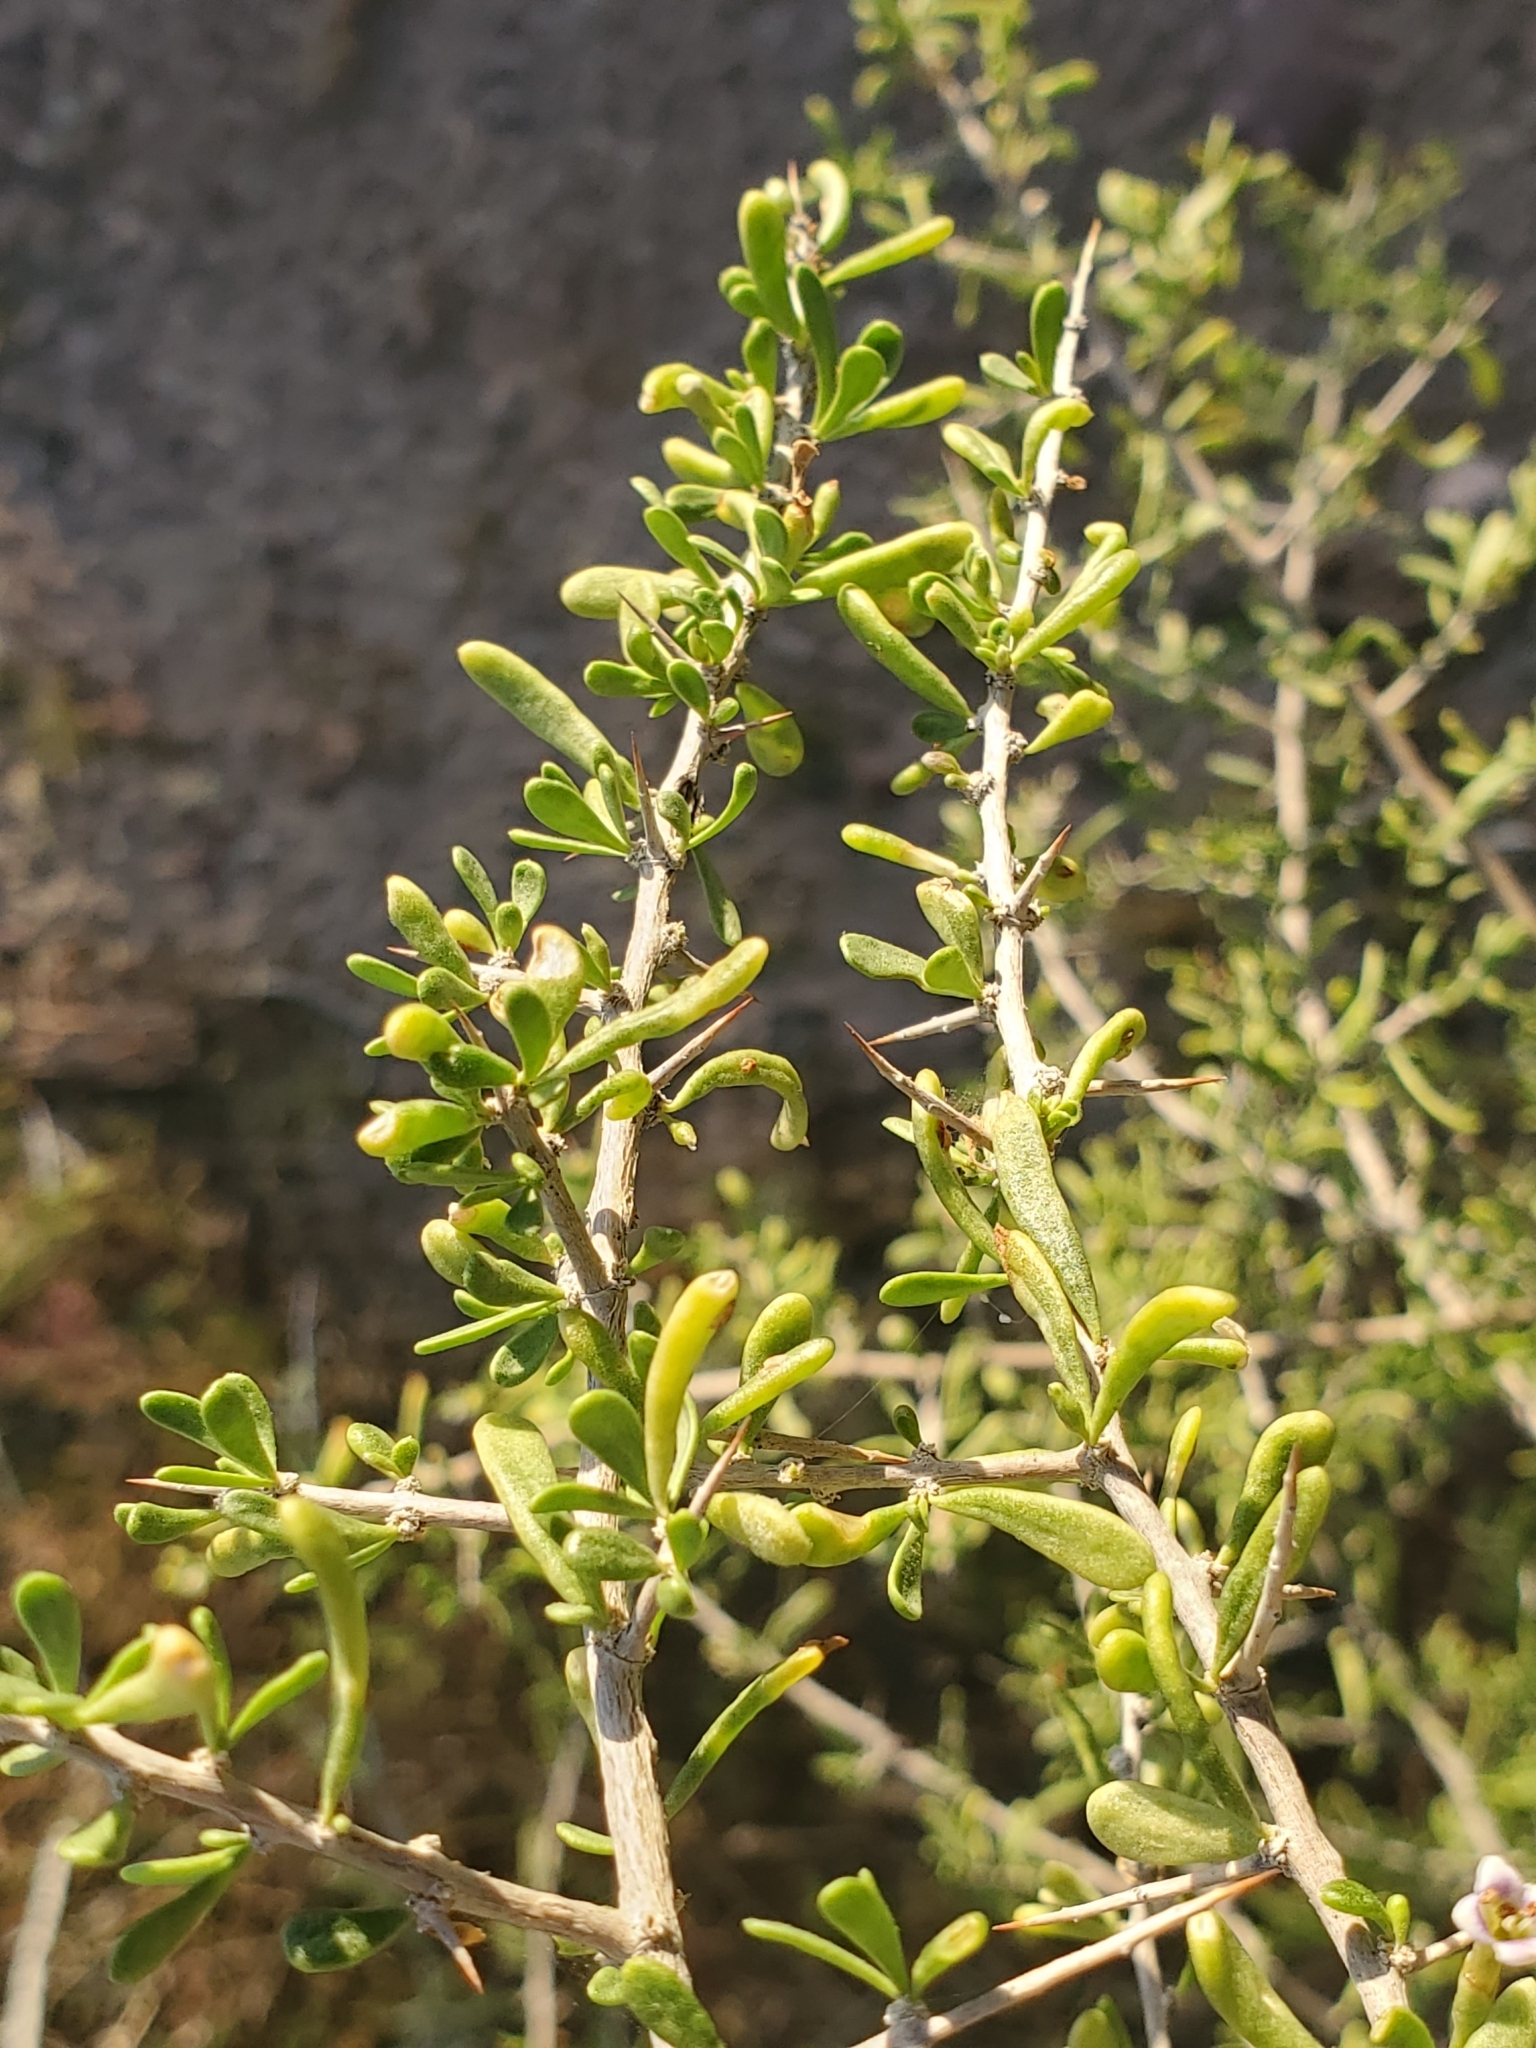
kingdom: Plantae
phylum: Tracheophyta
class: Magnoliopsida
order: Solanales
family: Solanaceae
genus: Lycium
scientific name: Lycium andersonii
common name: Water-jacket
